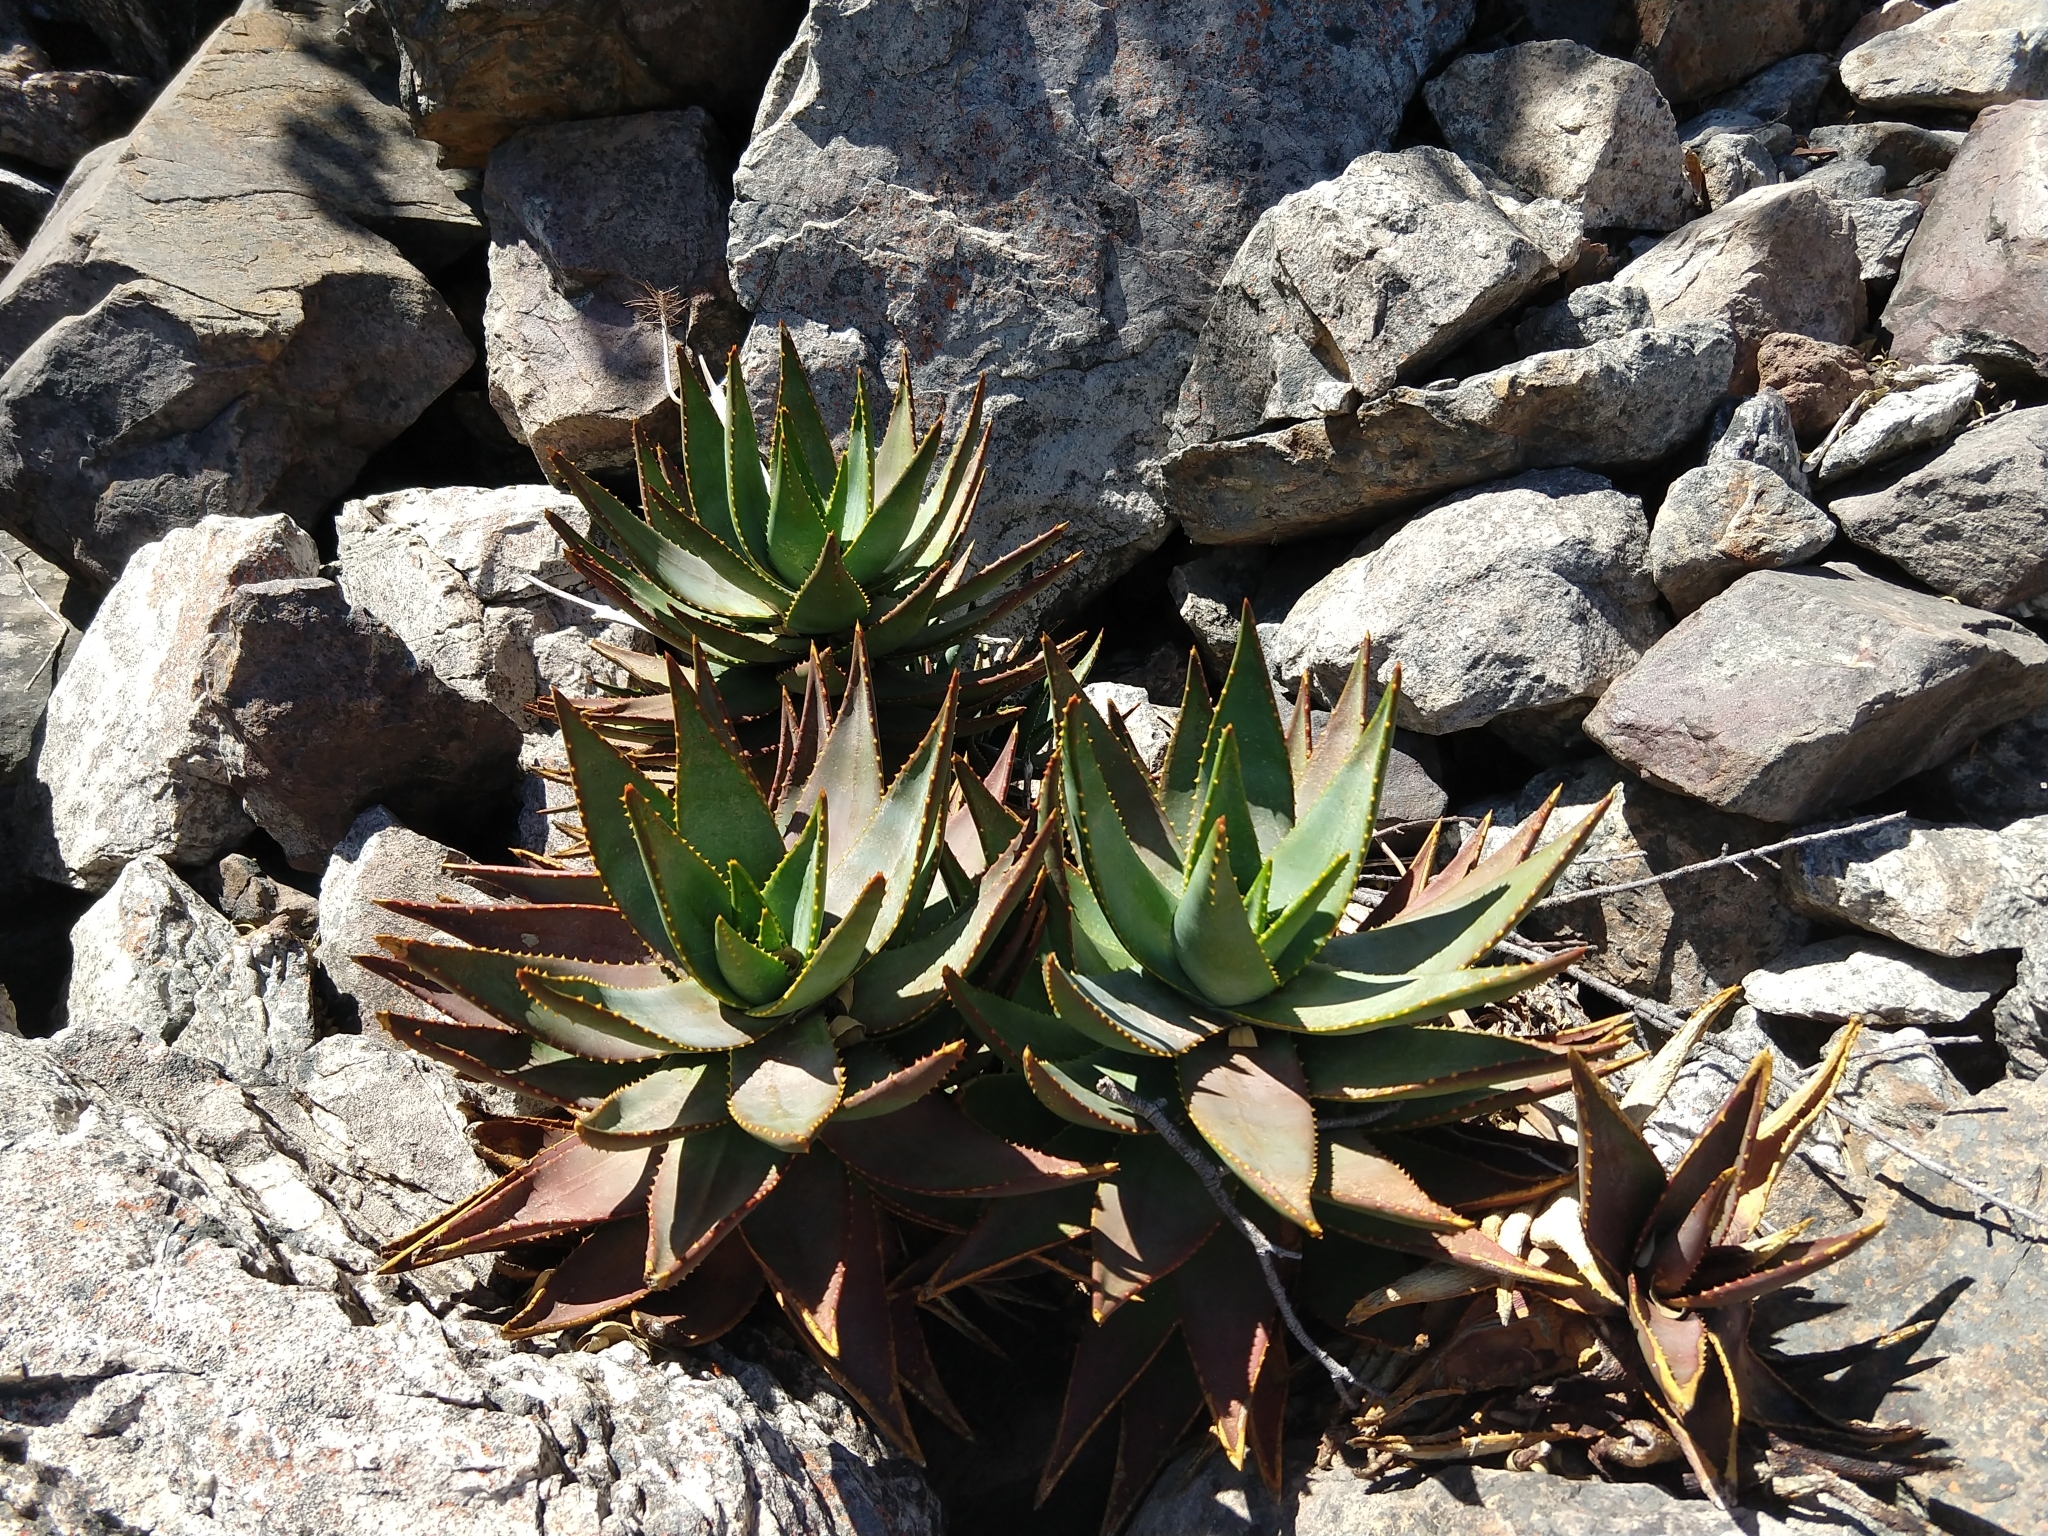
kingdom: Plantae
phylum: Tracheophyta
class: Liliopsida
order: Asparagales
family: Asphodelaceae
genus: Aloe
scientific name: Aloe perfoliata
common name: Mitra aloe
